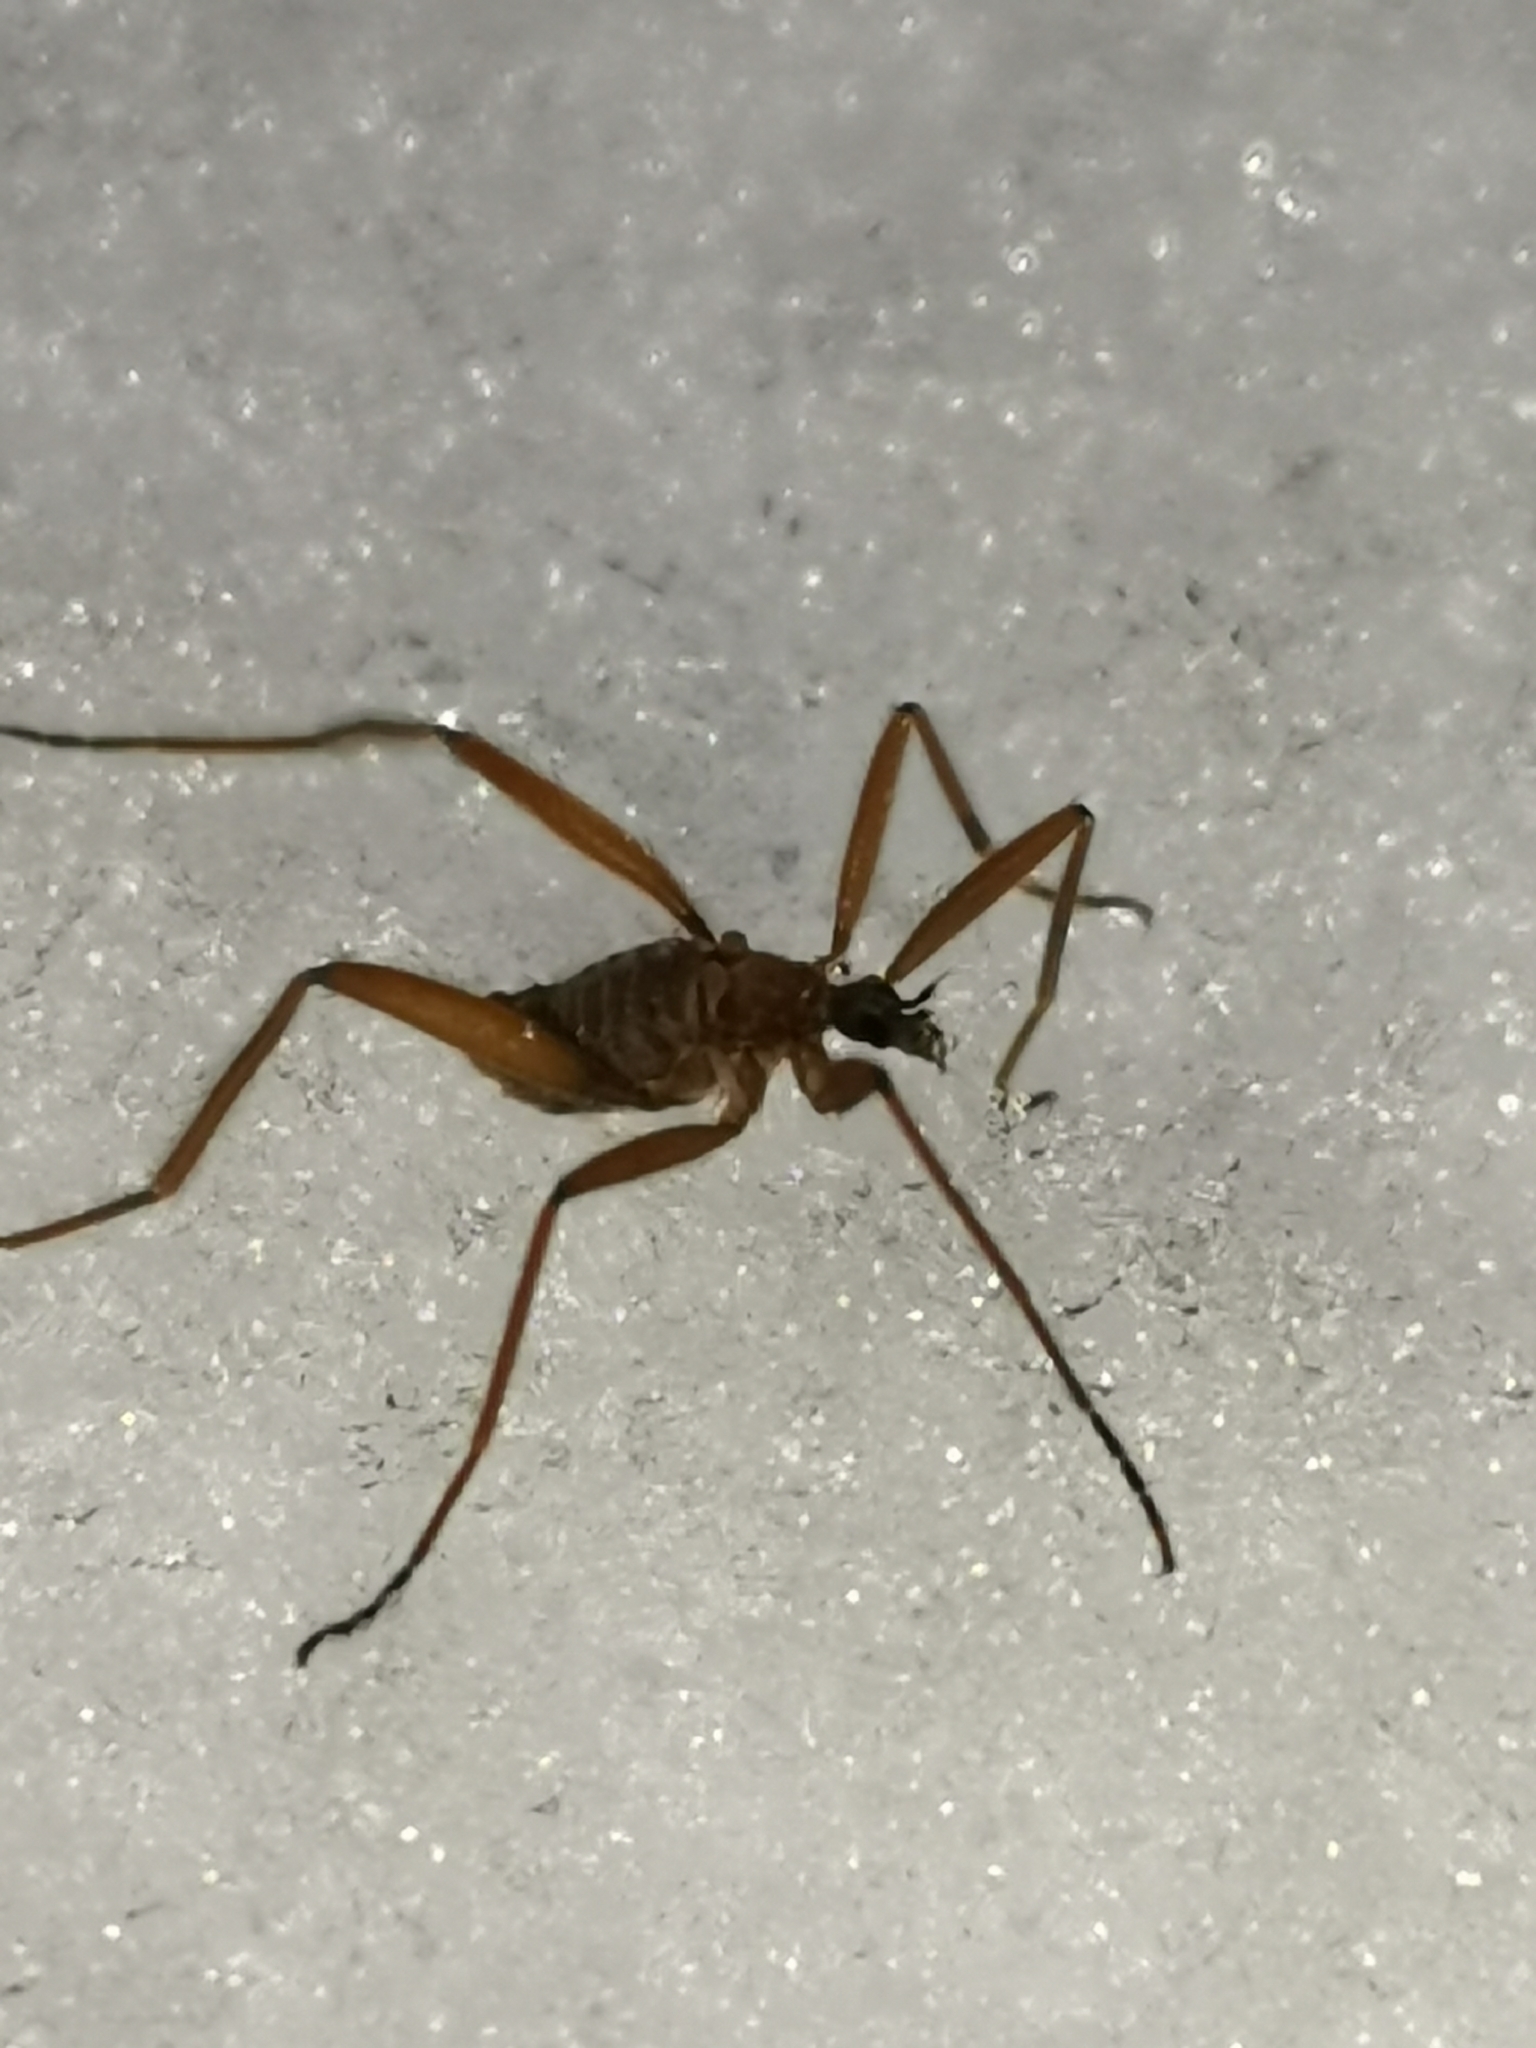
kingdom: Animalia
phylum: Arthropoda
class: Insecta
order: Diptera
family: Limoniidae
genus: Chionea
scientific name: Chionea lutescens
